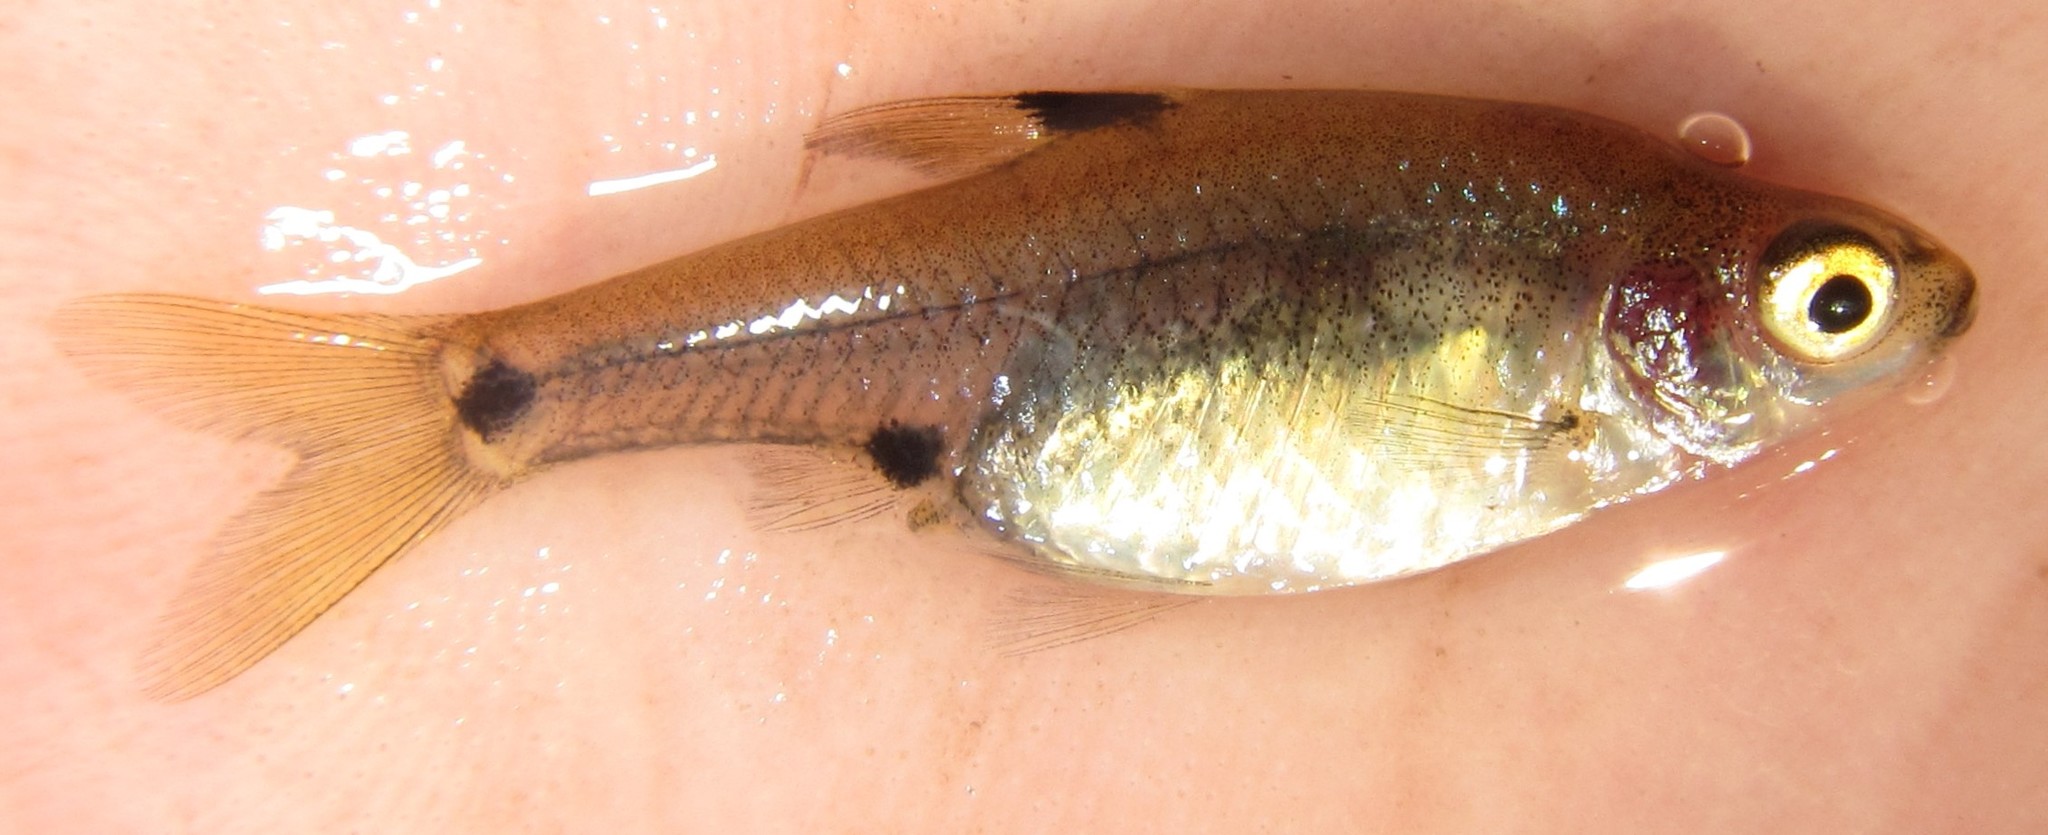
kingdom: Animalia
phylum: Chordata
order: Cypriniformes
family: Cyprinidae
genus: Enteromius
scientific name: Enteromius haasianus
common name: Sickle-fin barb
